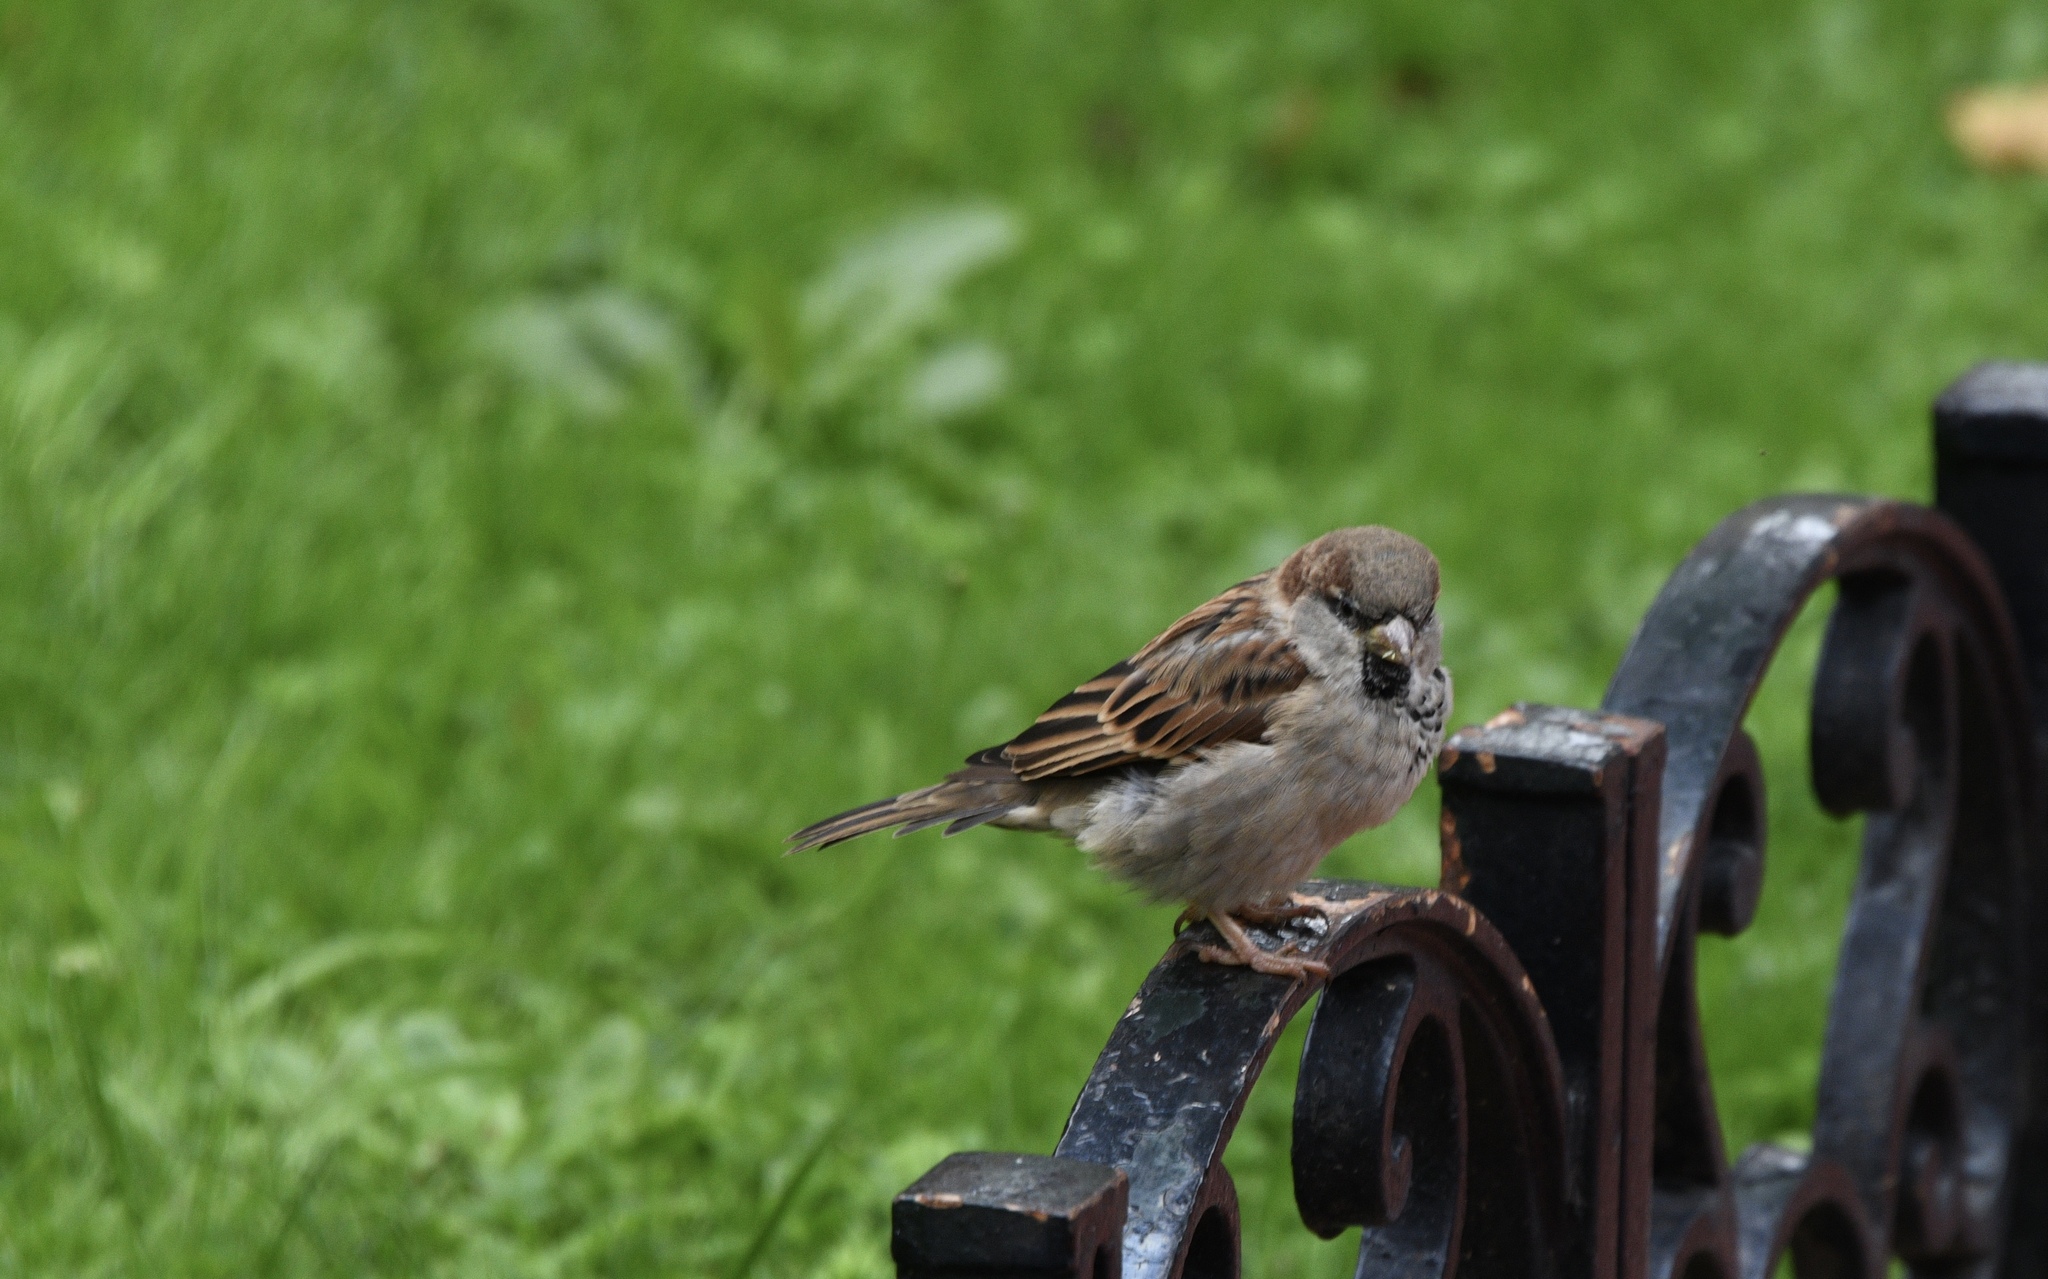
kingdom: Animalia
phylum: Chordata
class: Aves
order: Passeriformes
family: Passeridae
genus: Passer
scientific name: Passer domesticus
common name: House sparrow
